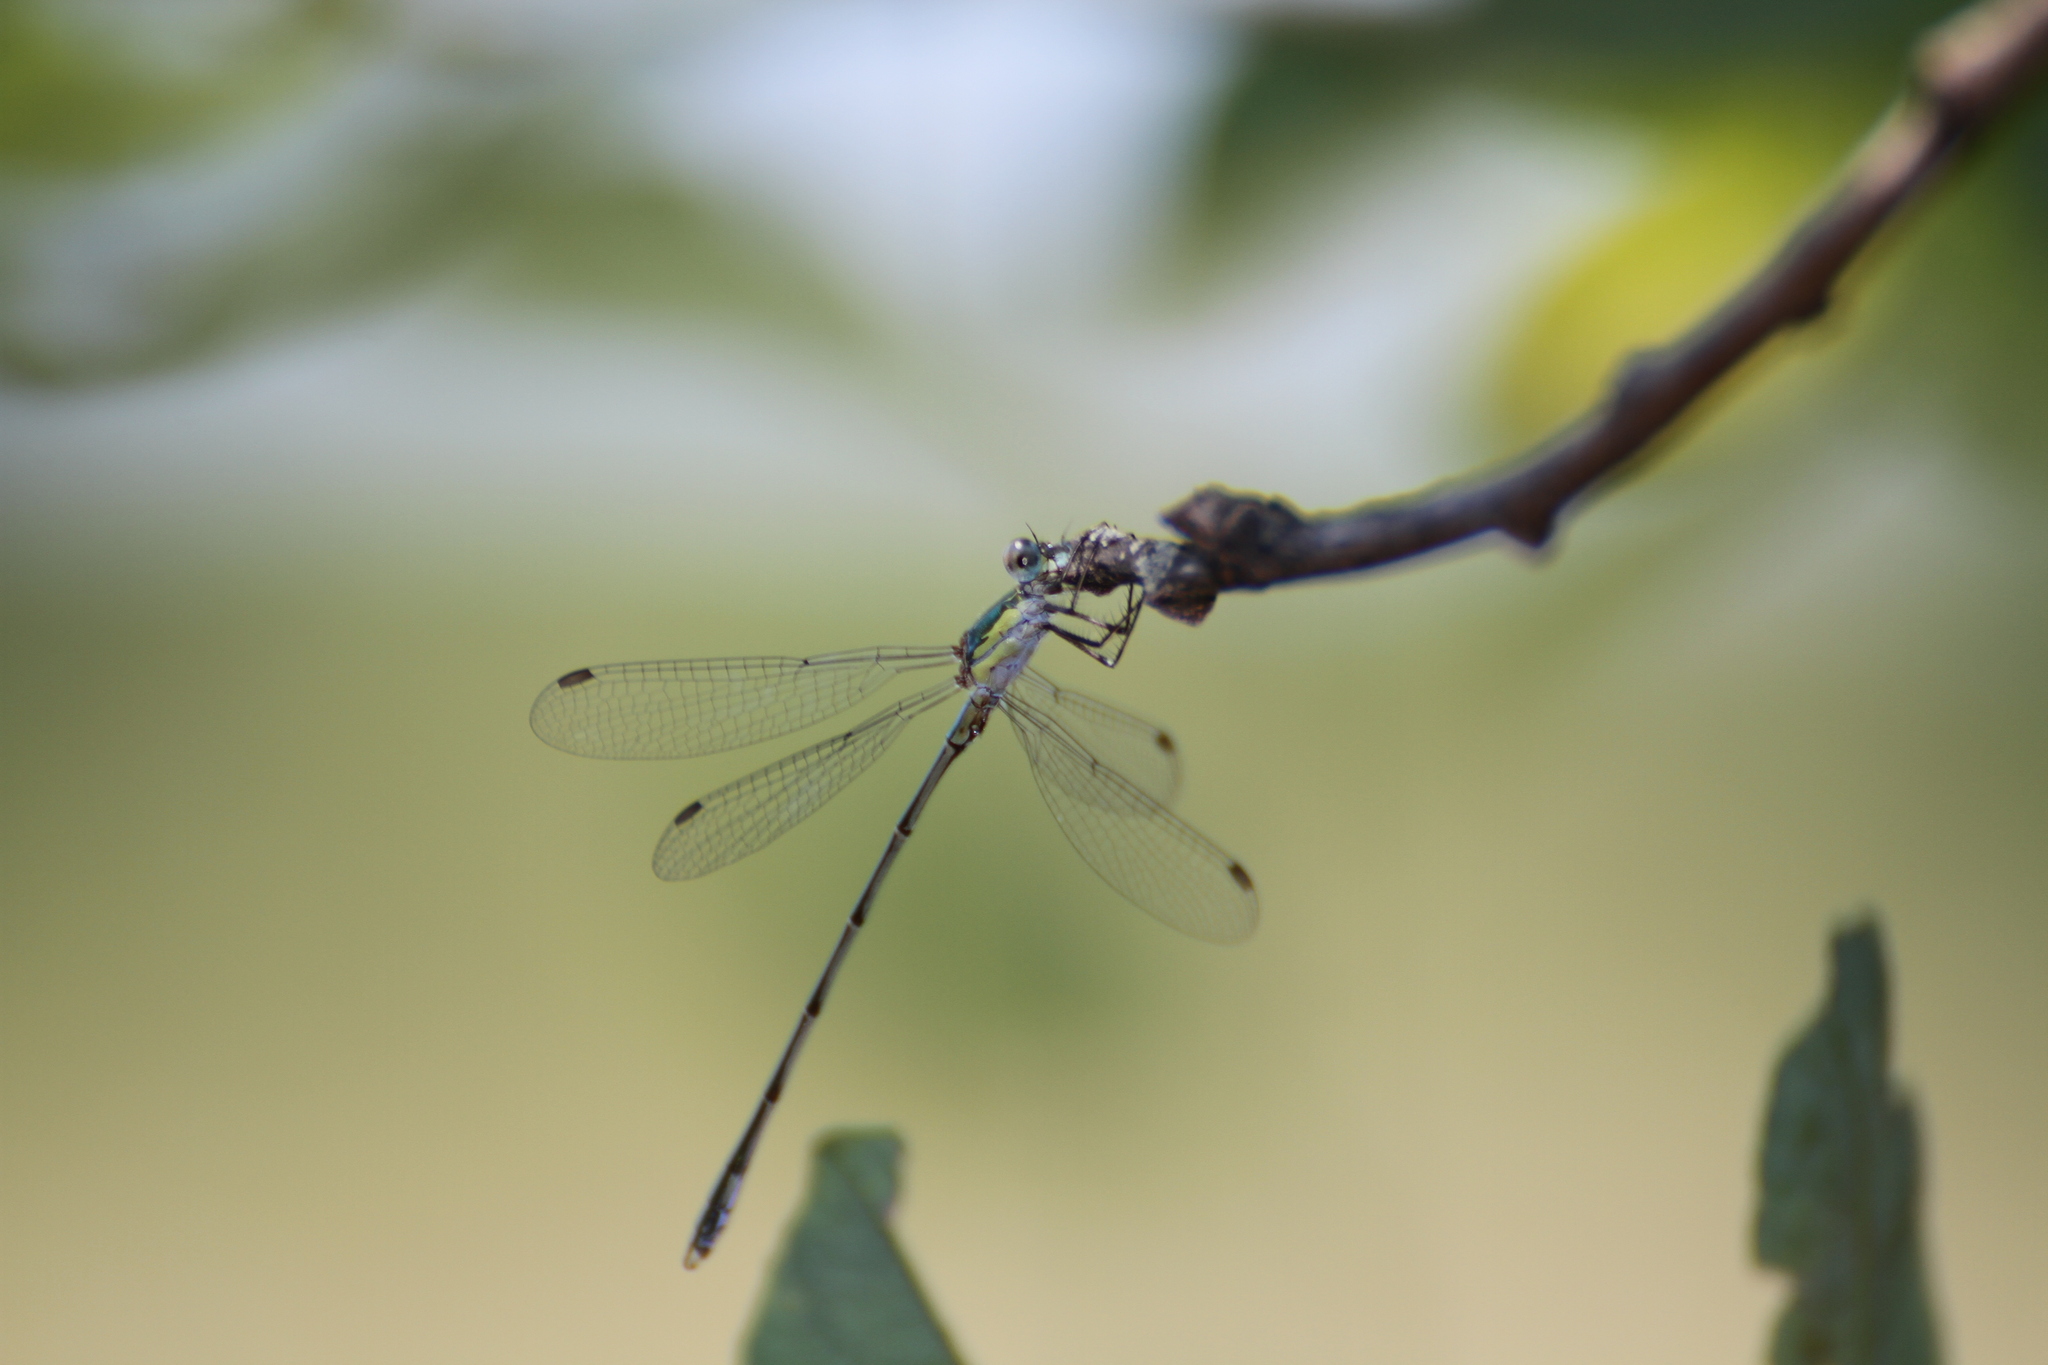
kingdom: Animalia
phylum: Arthropoda
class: Insecta
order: Odonata
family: Lestidae
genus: Chalcolestes
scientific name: Chalcolestes viridis
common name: Green emerald damselfly
